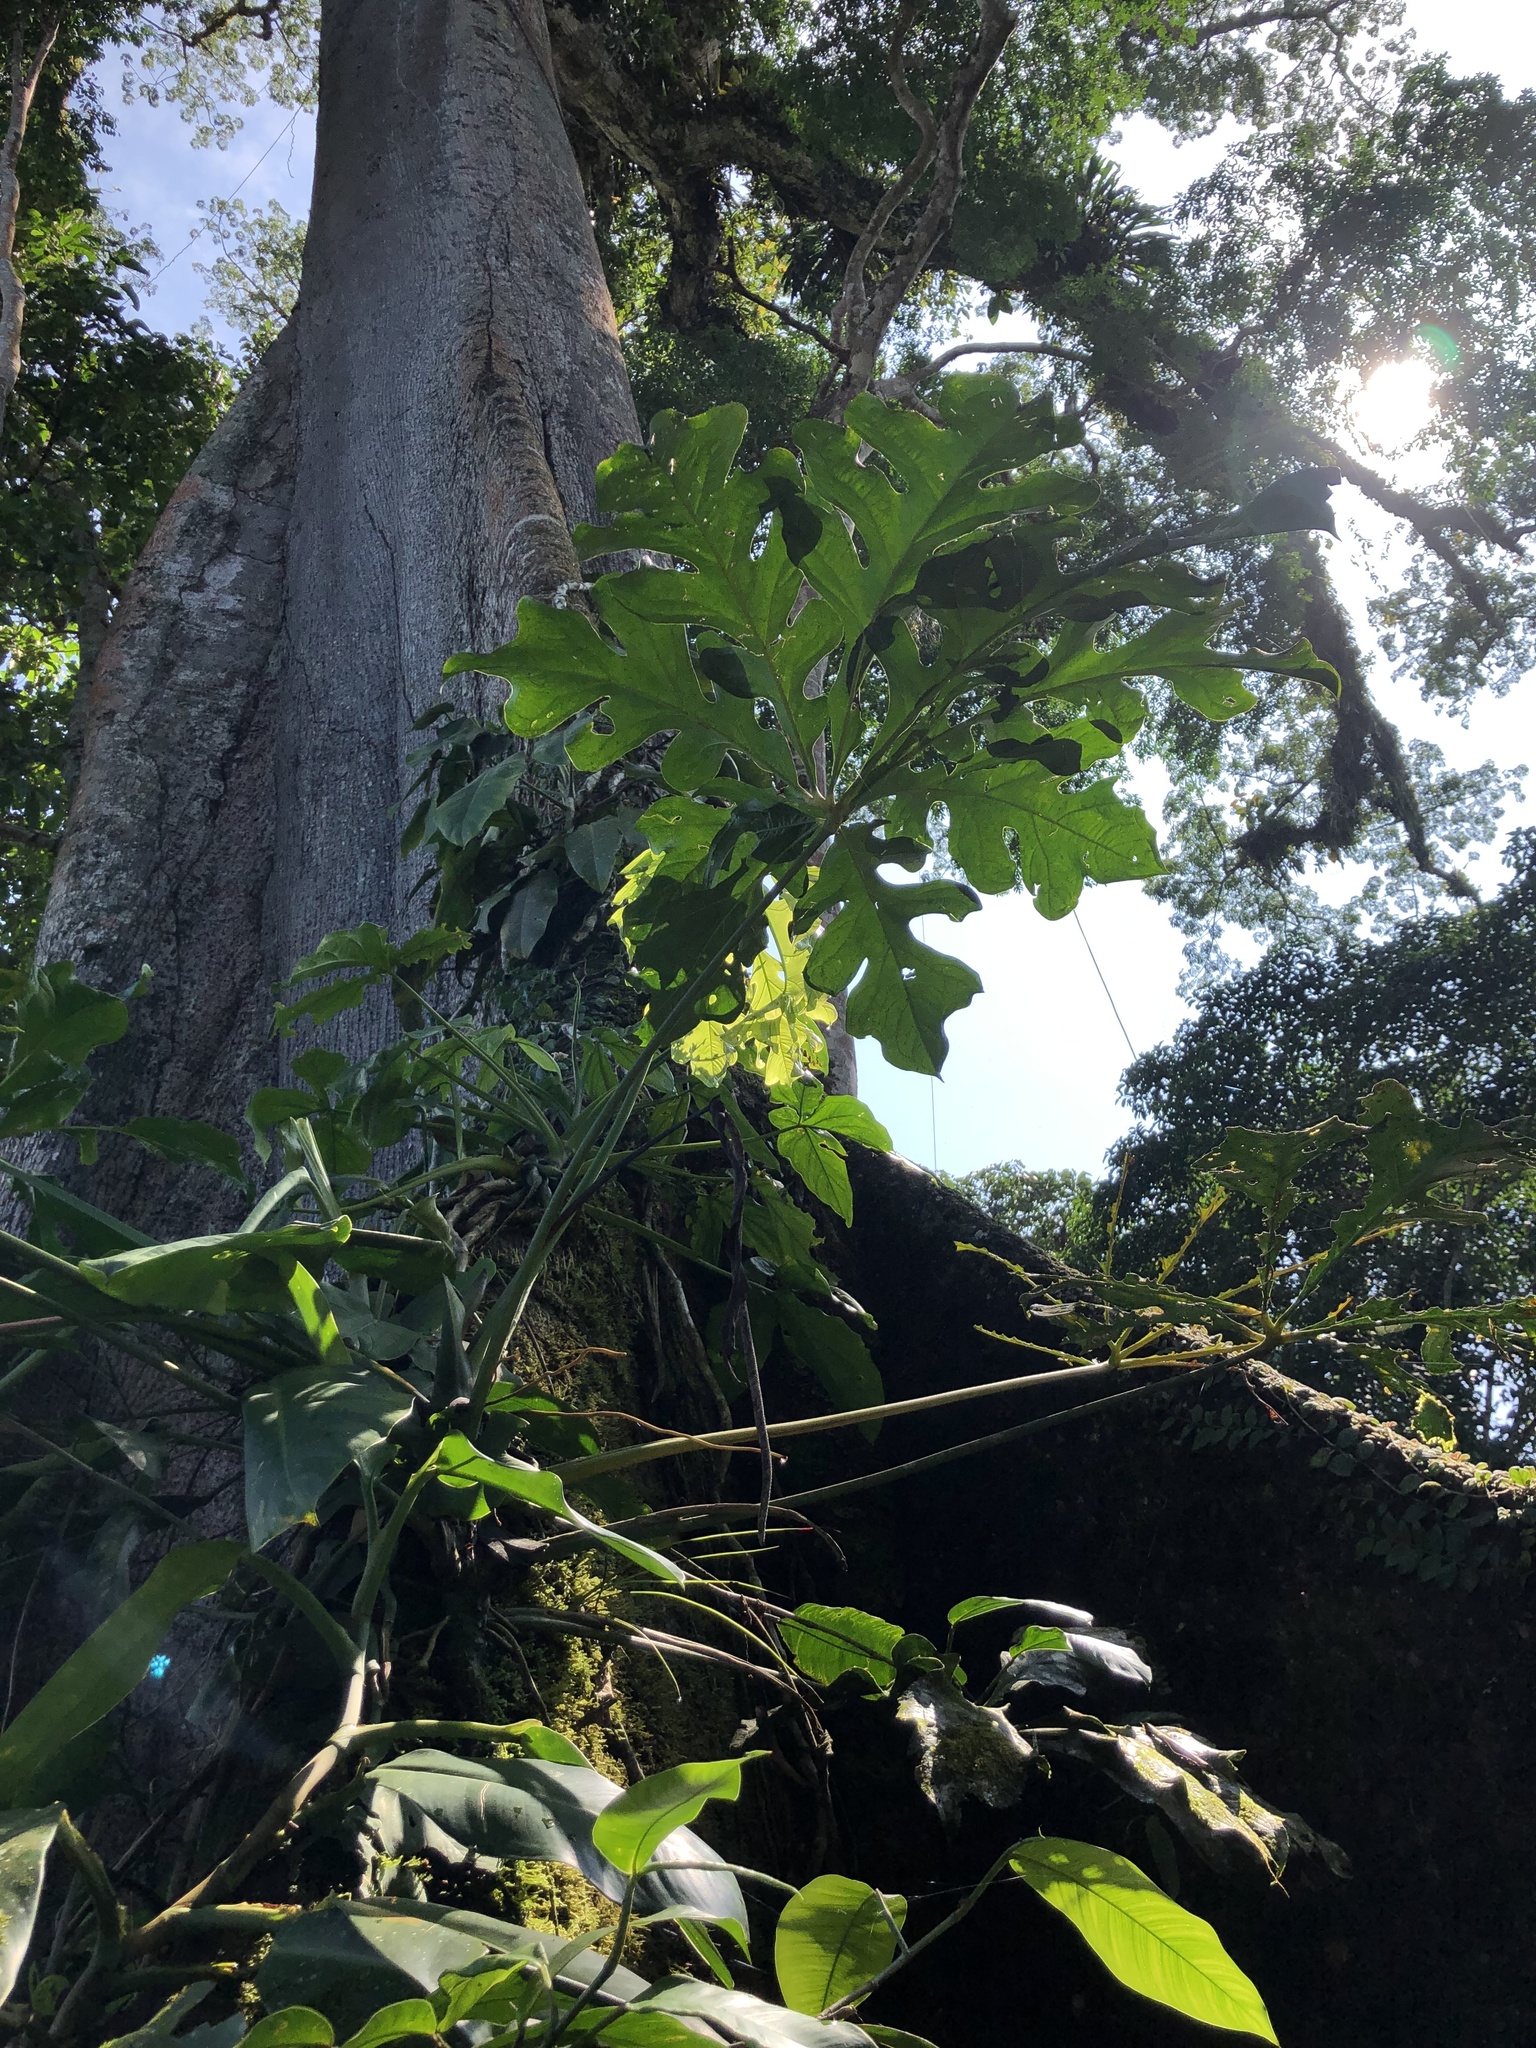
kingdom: Plantae
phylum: Tracheophyta
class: Liliopsida
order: Alismatales
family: Araceae
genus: Anthurium
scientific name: Anthurium clavigerum
